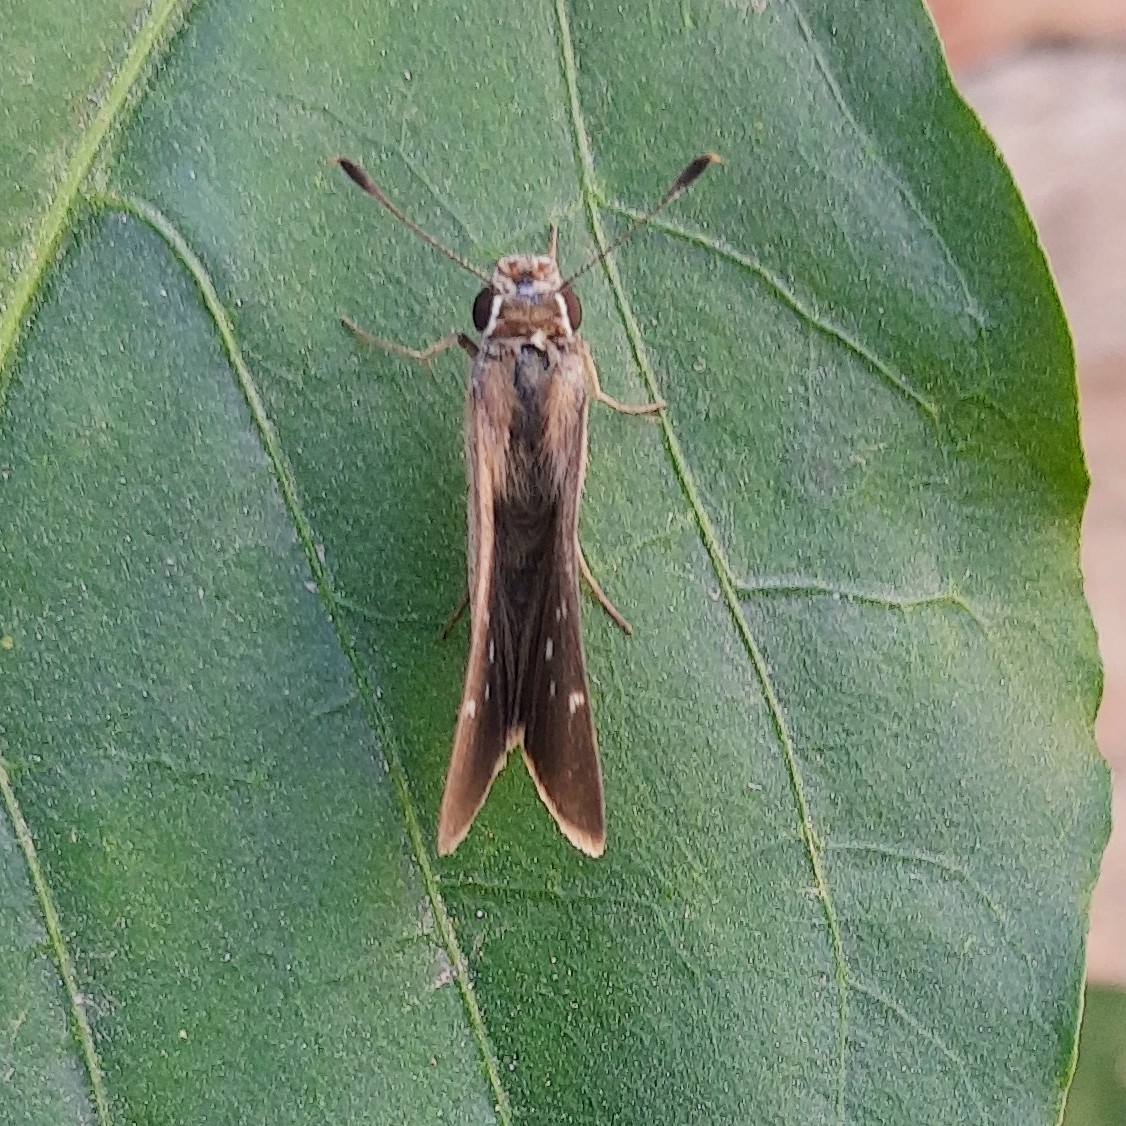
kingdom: Animalia
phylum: Arthropoda
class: Insecta
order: Lepidoptera
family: Hesperiidae
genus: Lerodea
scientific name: Lerodea eufala
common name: Eufala skipper
